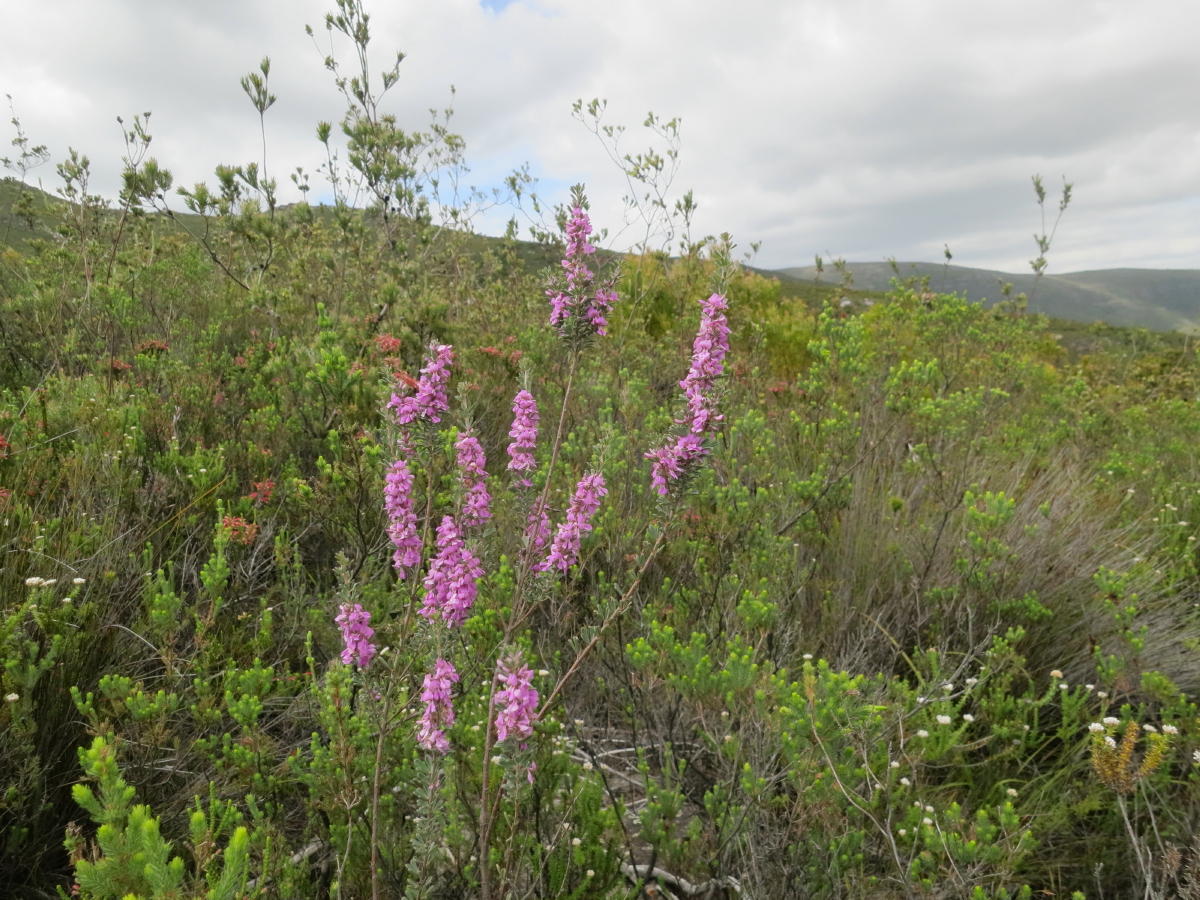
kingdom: Plantae
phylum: Tracheophyta
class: Magnoliopsida
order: Fabales
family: Fabaceae
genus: Indigofera
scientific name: Indigofera flabellata
